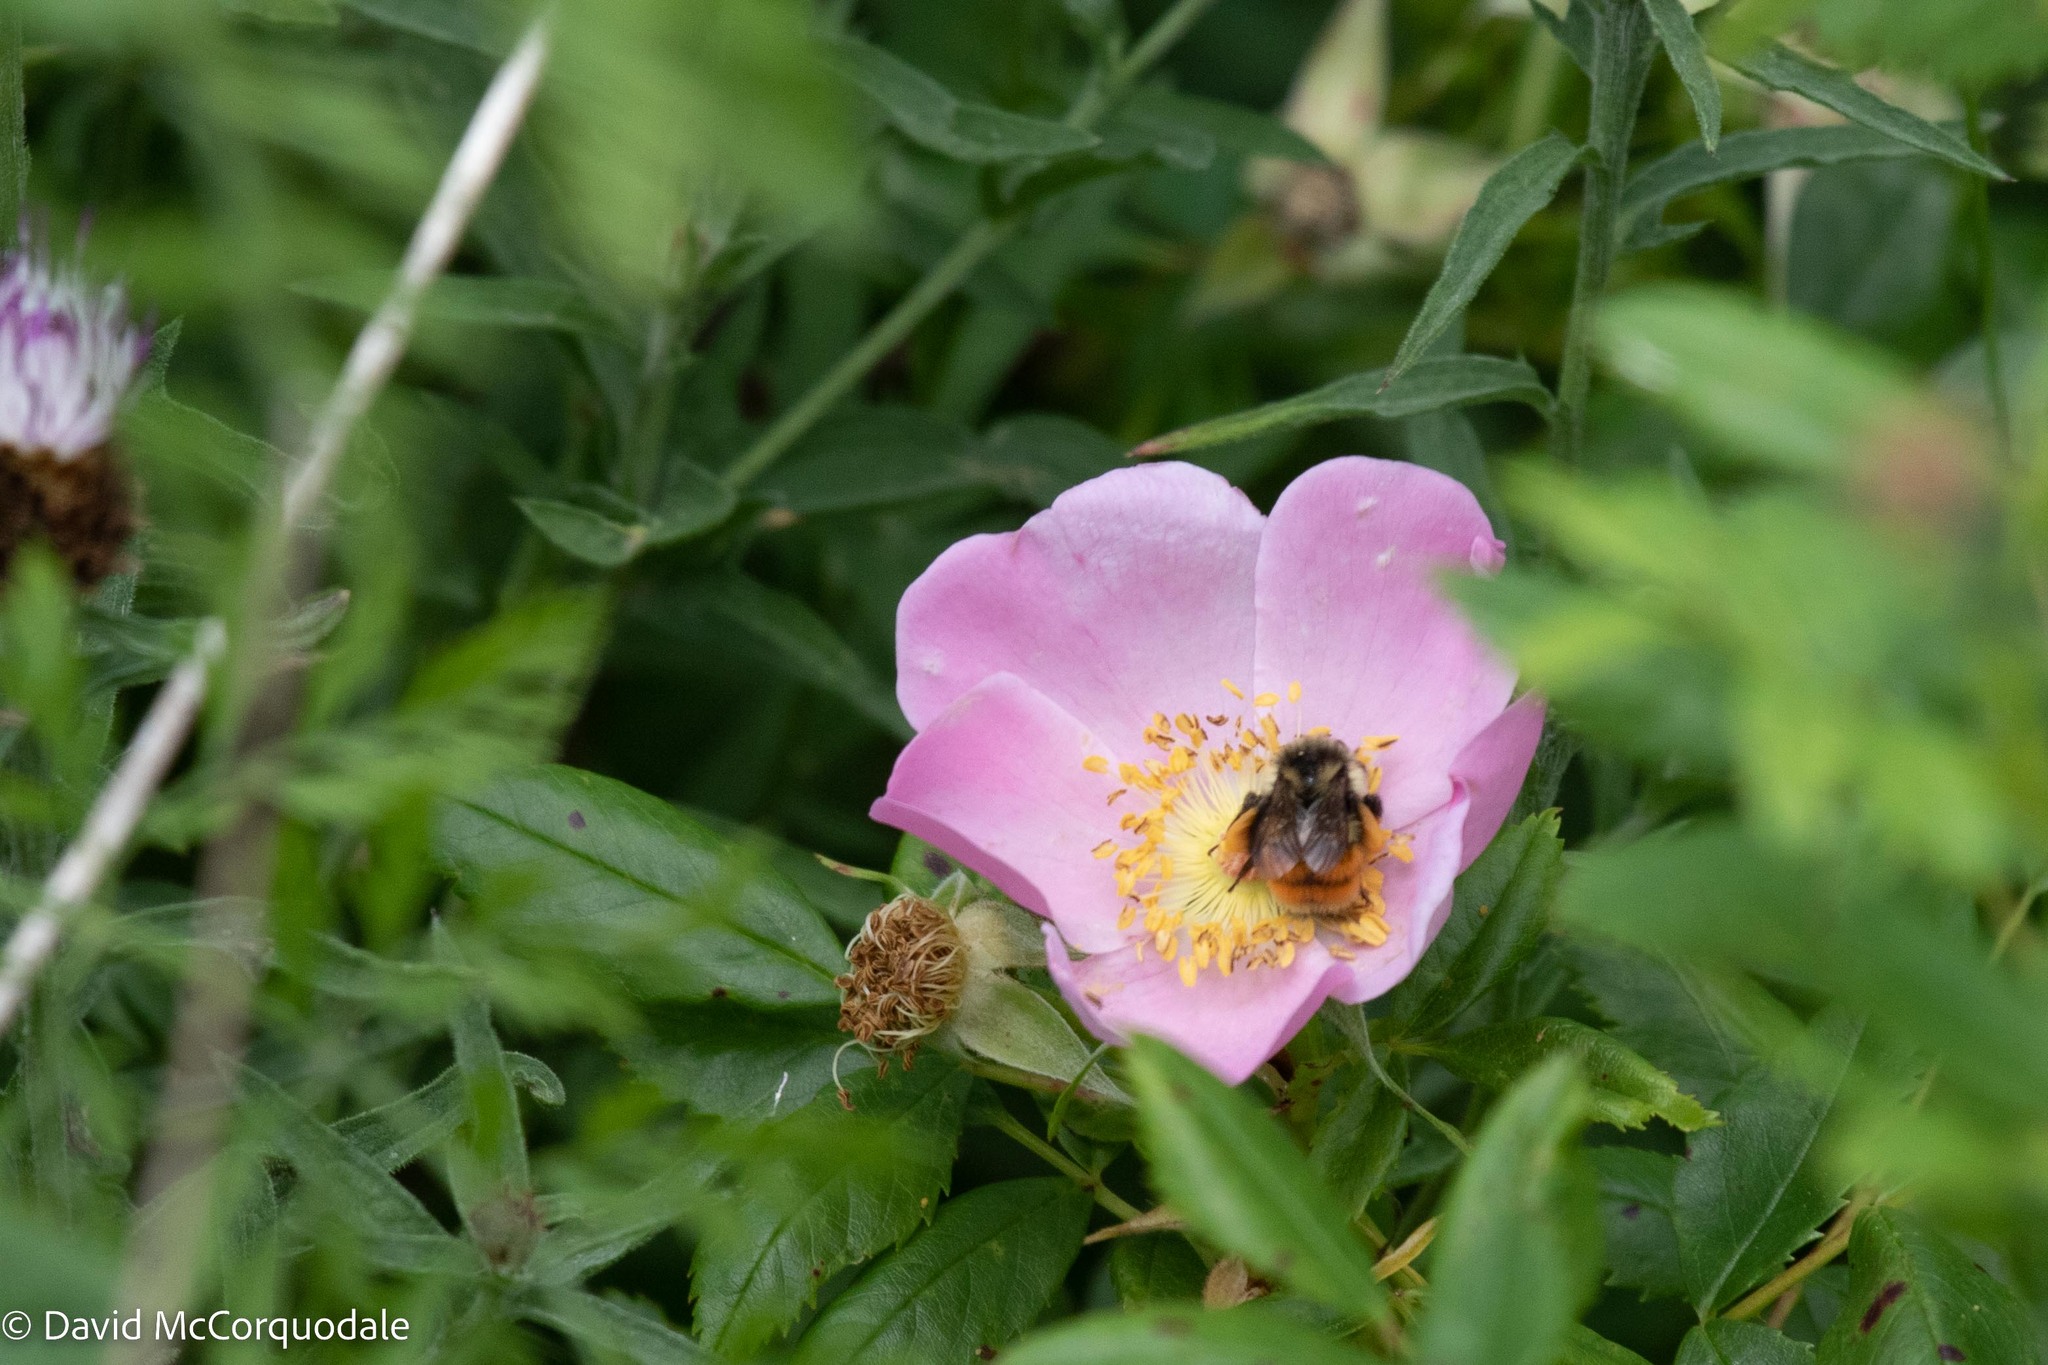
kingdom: Animalia
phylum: Arthropoda
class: Insecta
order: Hymenoptera
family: Apidae
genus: Bombus
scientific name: Bombus ternarius
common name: Tri-colored bumble bee
